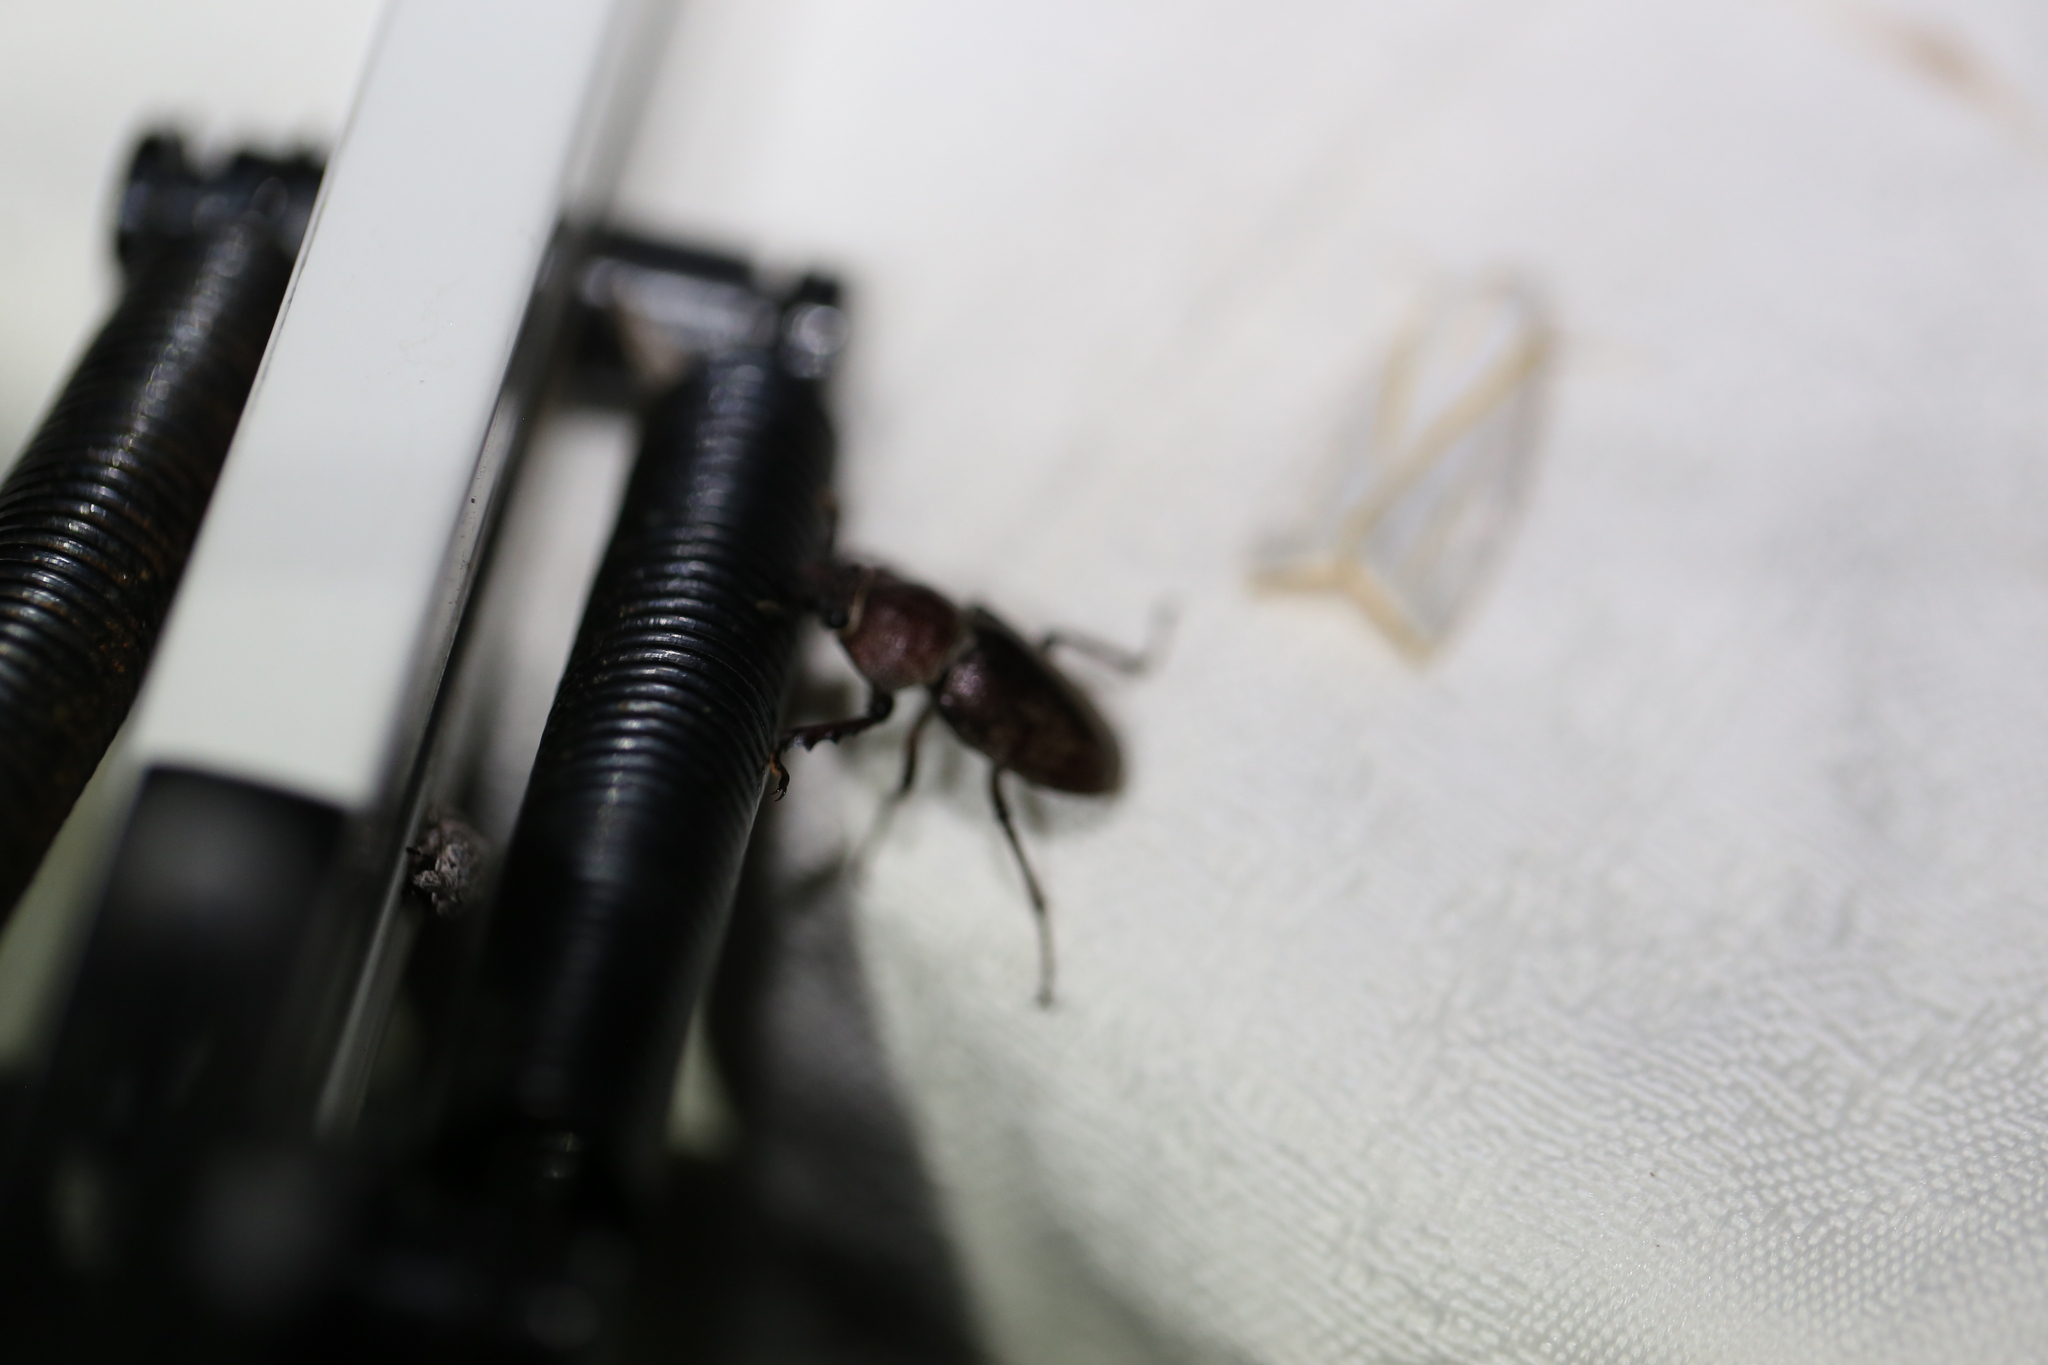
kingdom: Animalia
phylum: Arthropoda
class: Insecta
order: Coleoptera
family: Lucanidae
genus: Cacostomus
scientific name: Cacostomus squamosus
